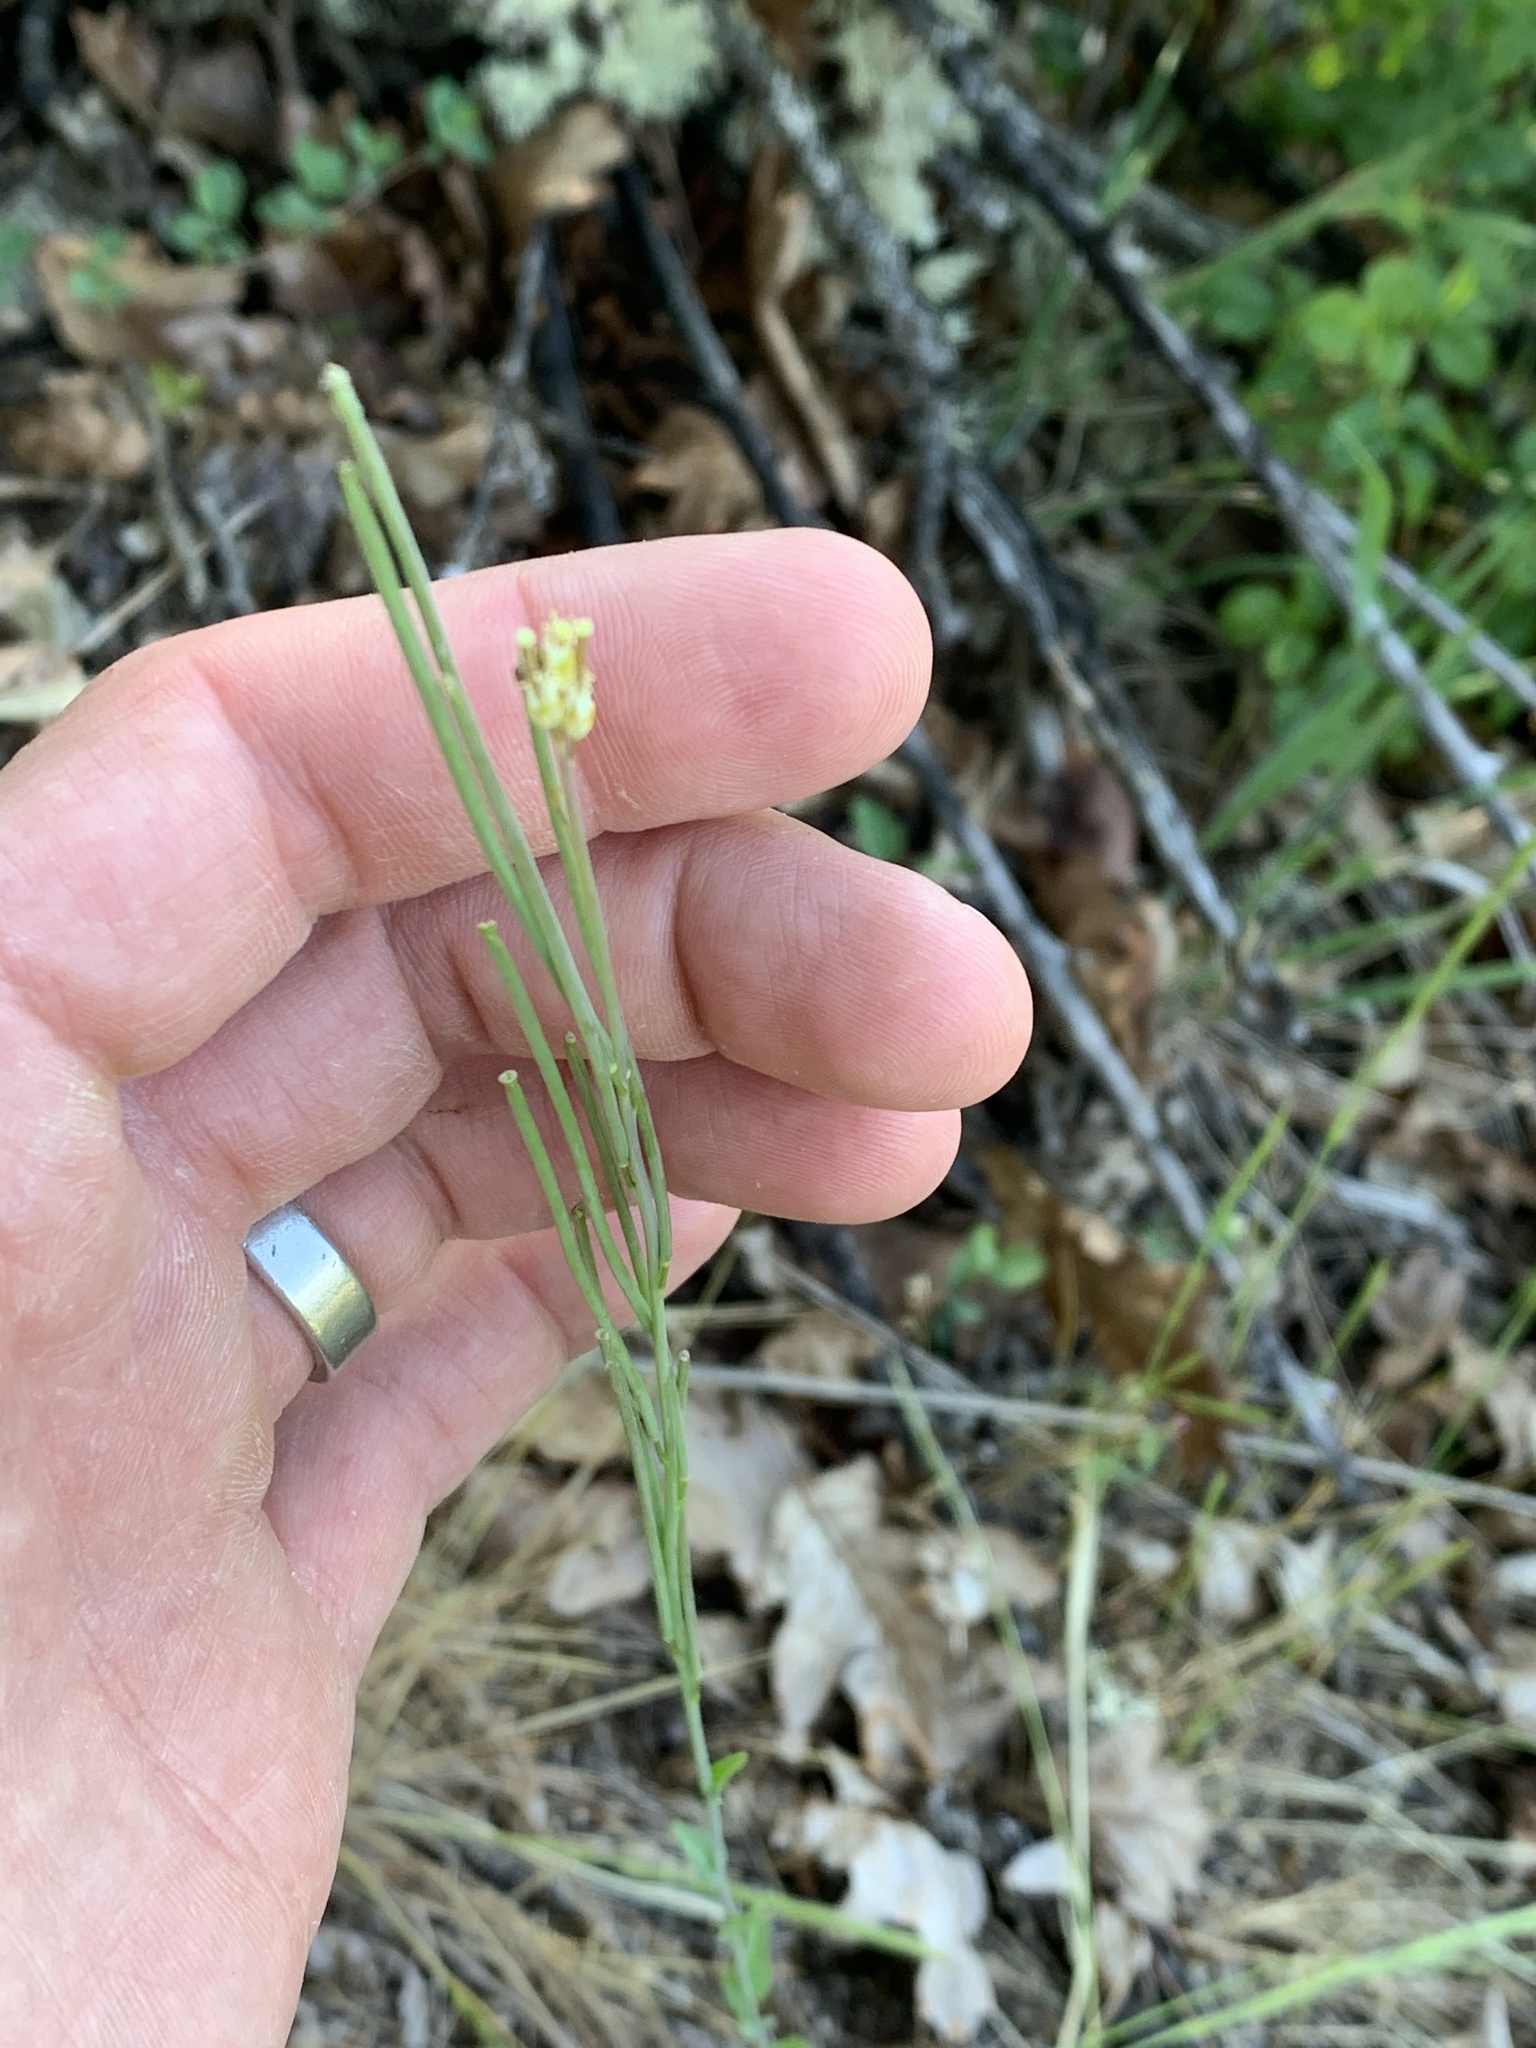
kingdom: Plantae
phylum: Tracheophyta
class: Magnoliopsida
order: Brassicales
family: Brassicaceae
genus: Turritis
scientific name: Turritis glabra
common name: Tower rockcress
